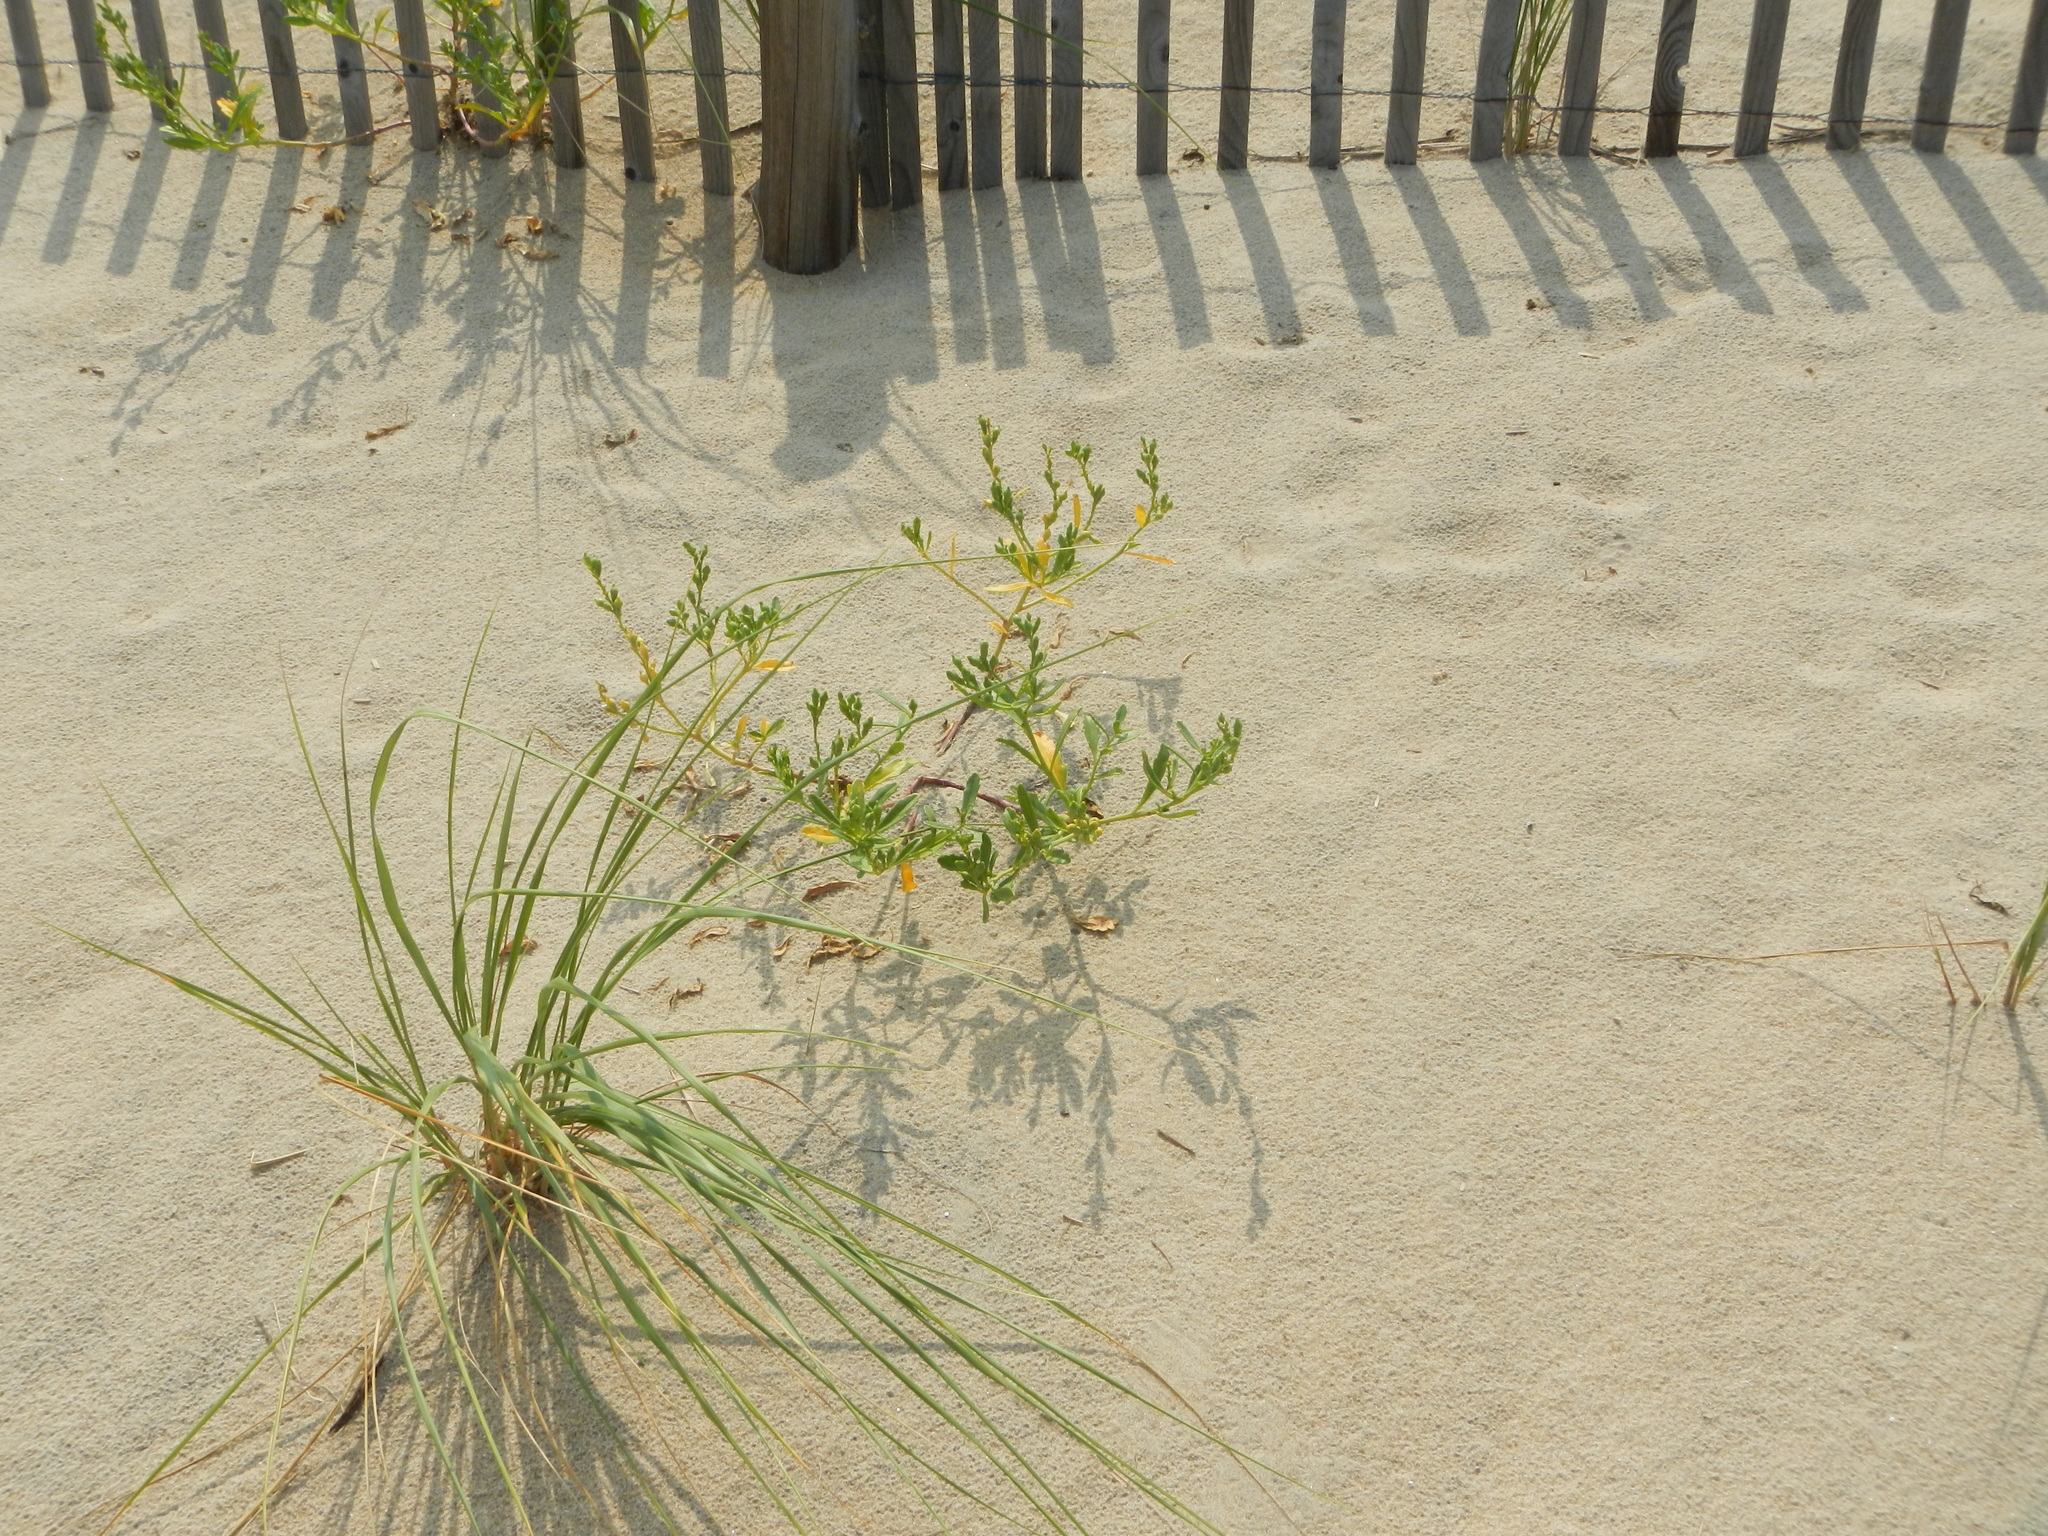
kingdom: Plantae
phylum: Tracheophyta
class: Magnoliopsida
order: Brassicales
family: Brassicaceae
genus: Cakile
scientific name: Cakile edentula
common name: American sea rocket
